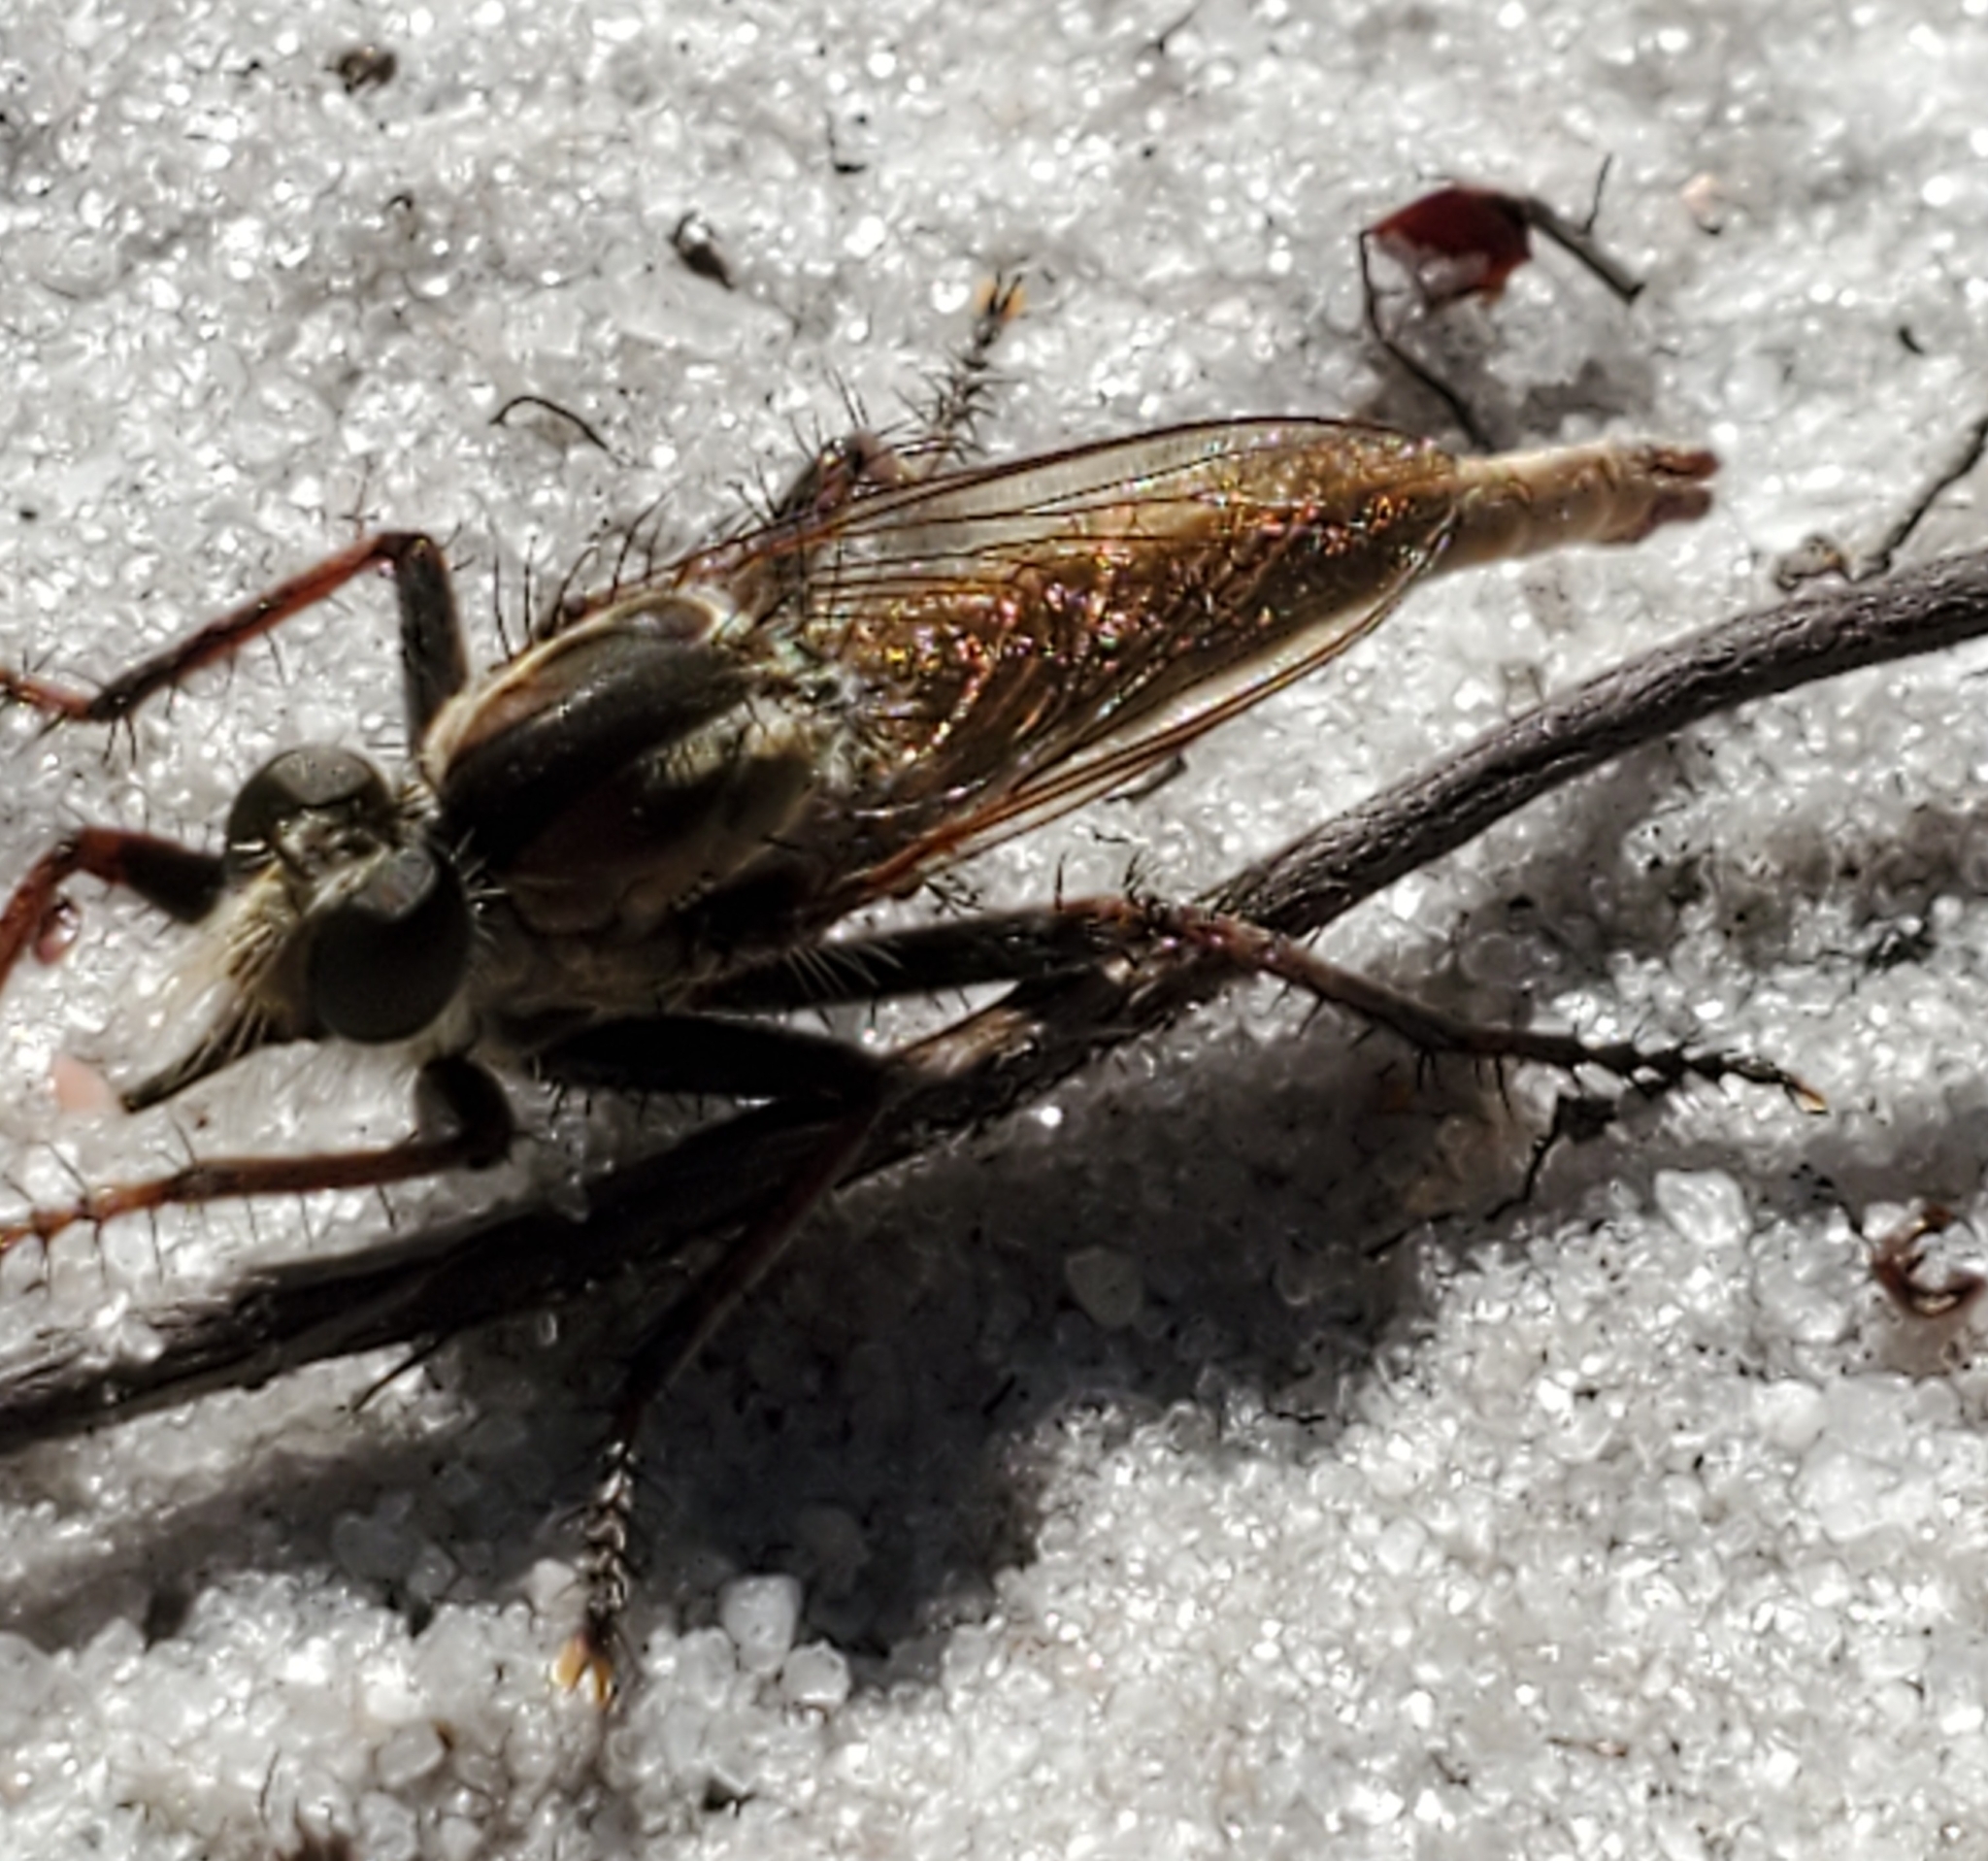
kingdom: Animalia
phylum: Arthropoda
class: Insecta
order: Diptera
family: Asilidae
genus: Proctacanthus
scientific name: Proctacanthus brevipennis
